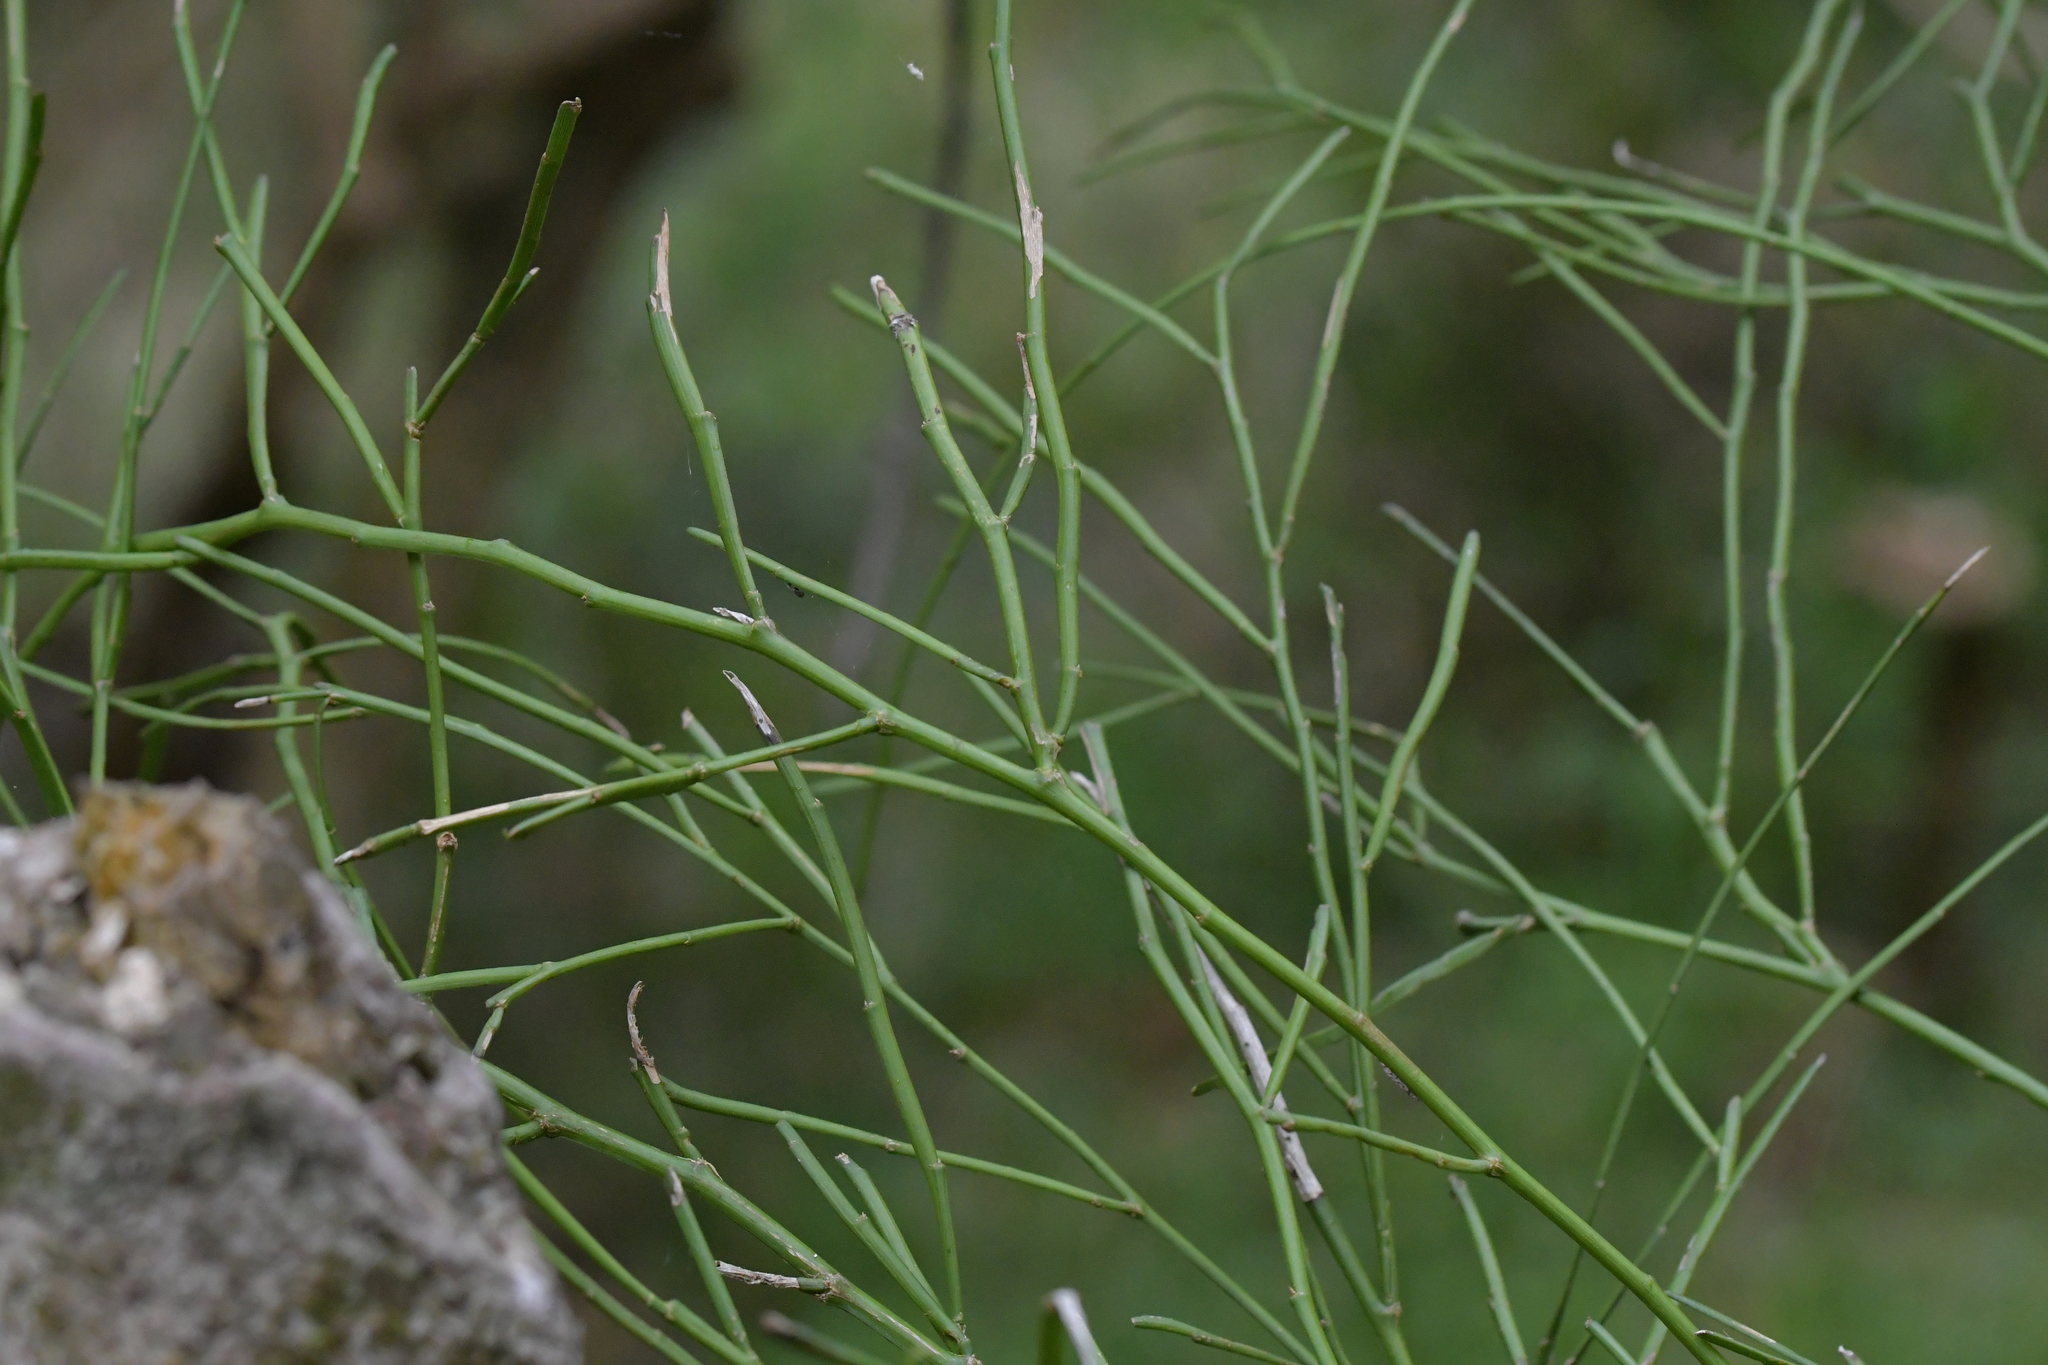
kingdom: Plantae
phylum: Tracheophyta
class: Magnoliopsida
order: Fabales
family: Fabaceae
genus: Carmichaelia
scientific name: Carmichaelia australis
